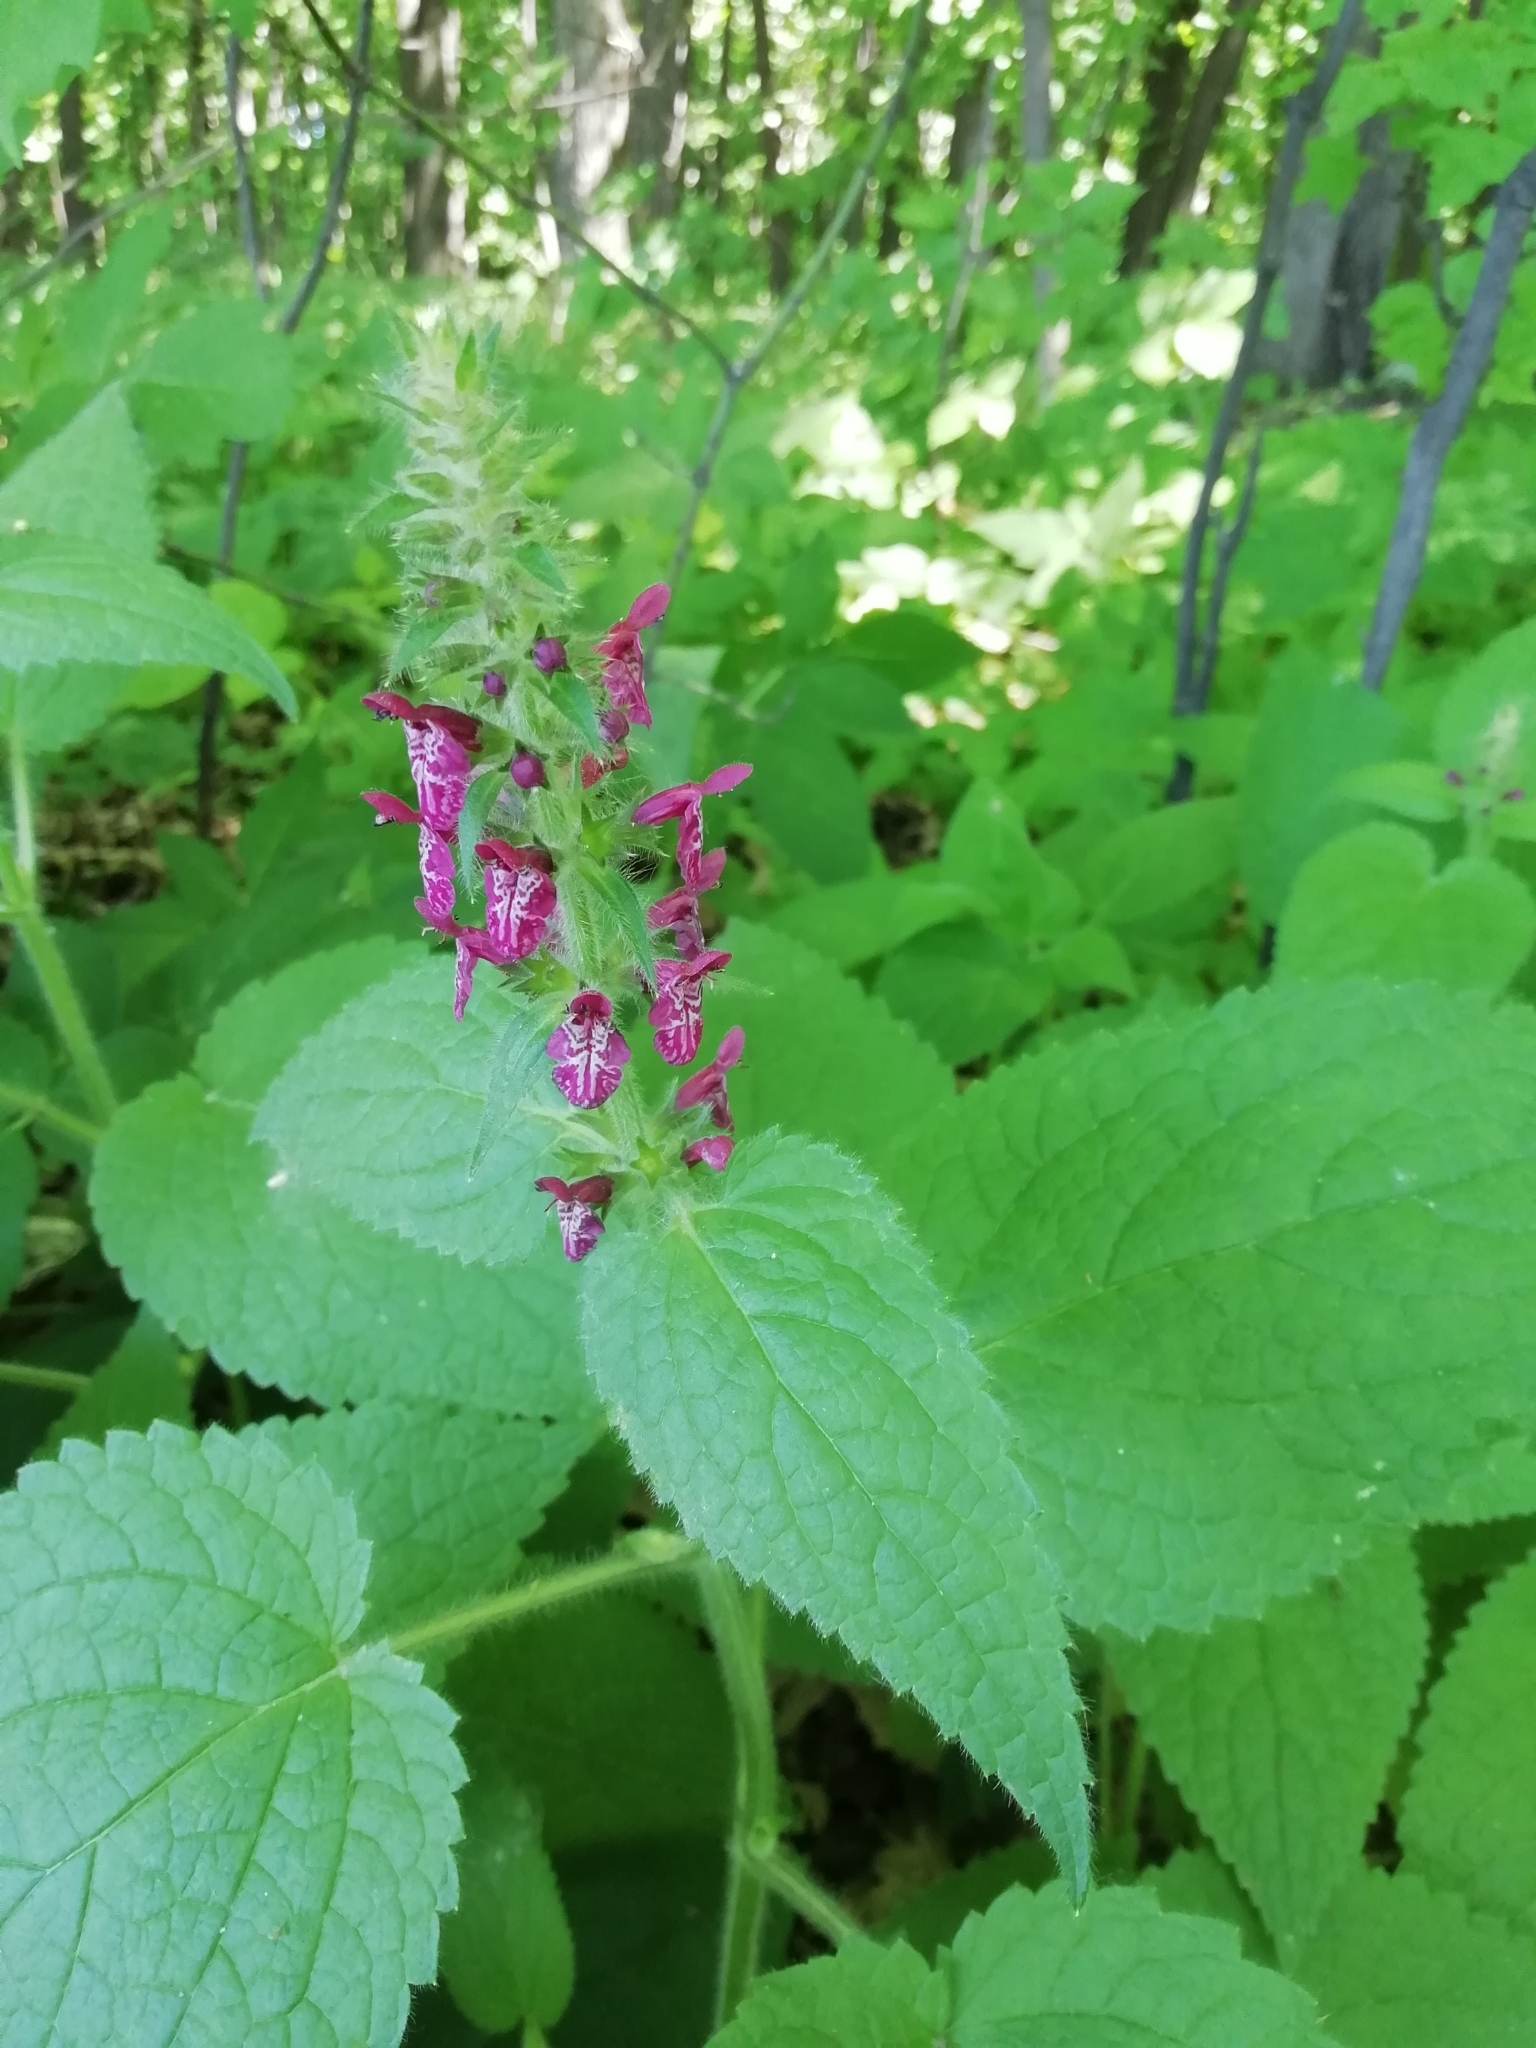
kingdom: Plantae
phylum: Tracheophyta
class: Magnoliopsida
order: Lamiales
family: Lamiaceae
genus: Stachys
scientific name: Stachys sylvatica
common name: Hedge woundwort
